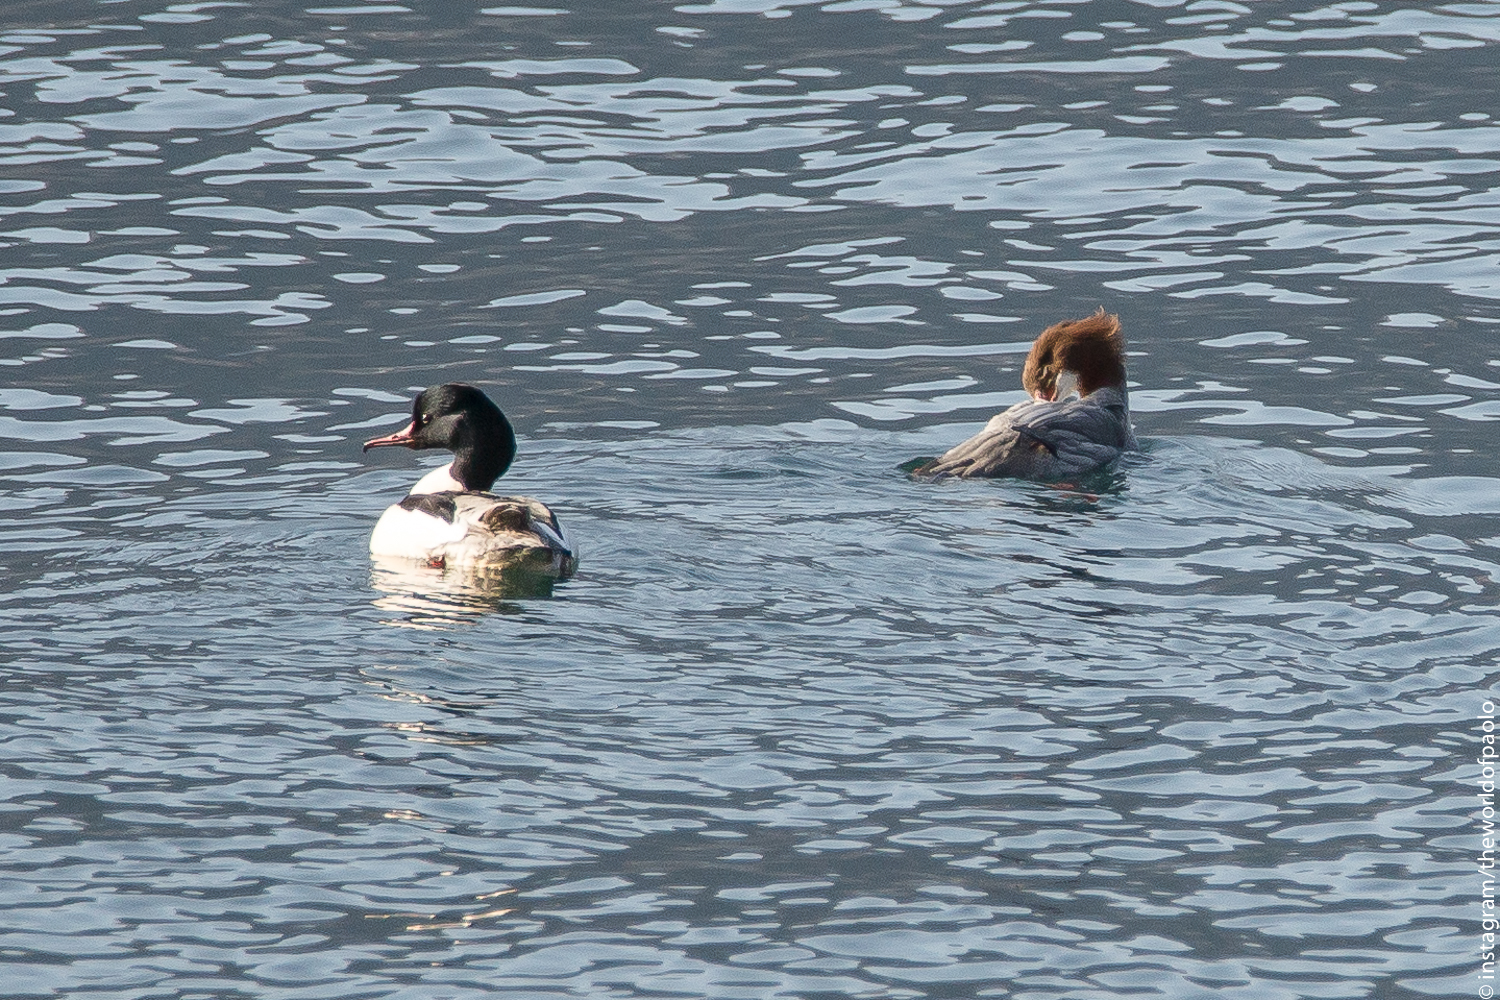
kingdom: Animalia
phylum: Chordata
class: Aves
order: Anseriformes
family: Anatidae
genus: Mergus
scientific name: Mergus merganser
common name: Common merganser
